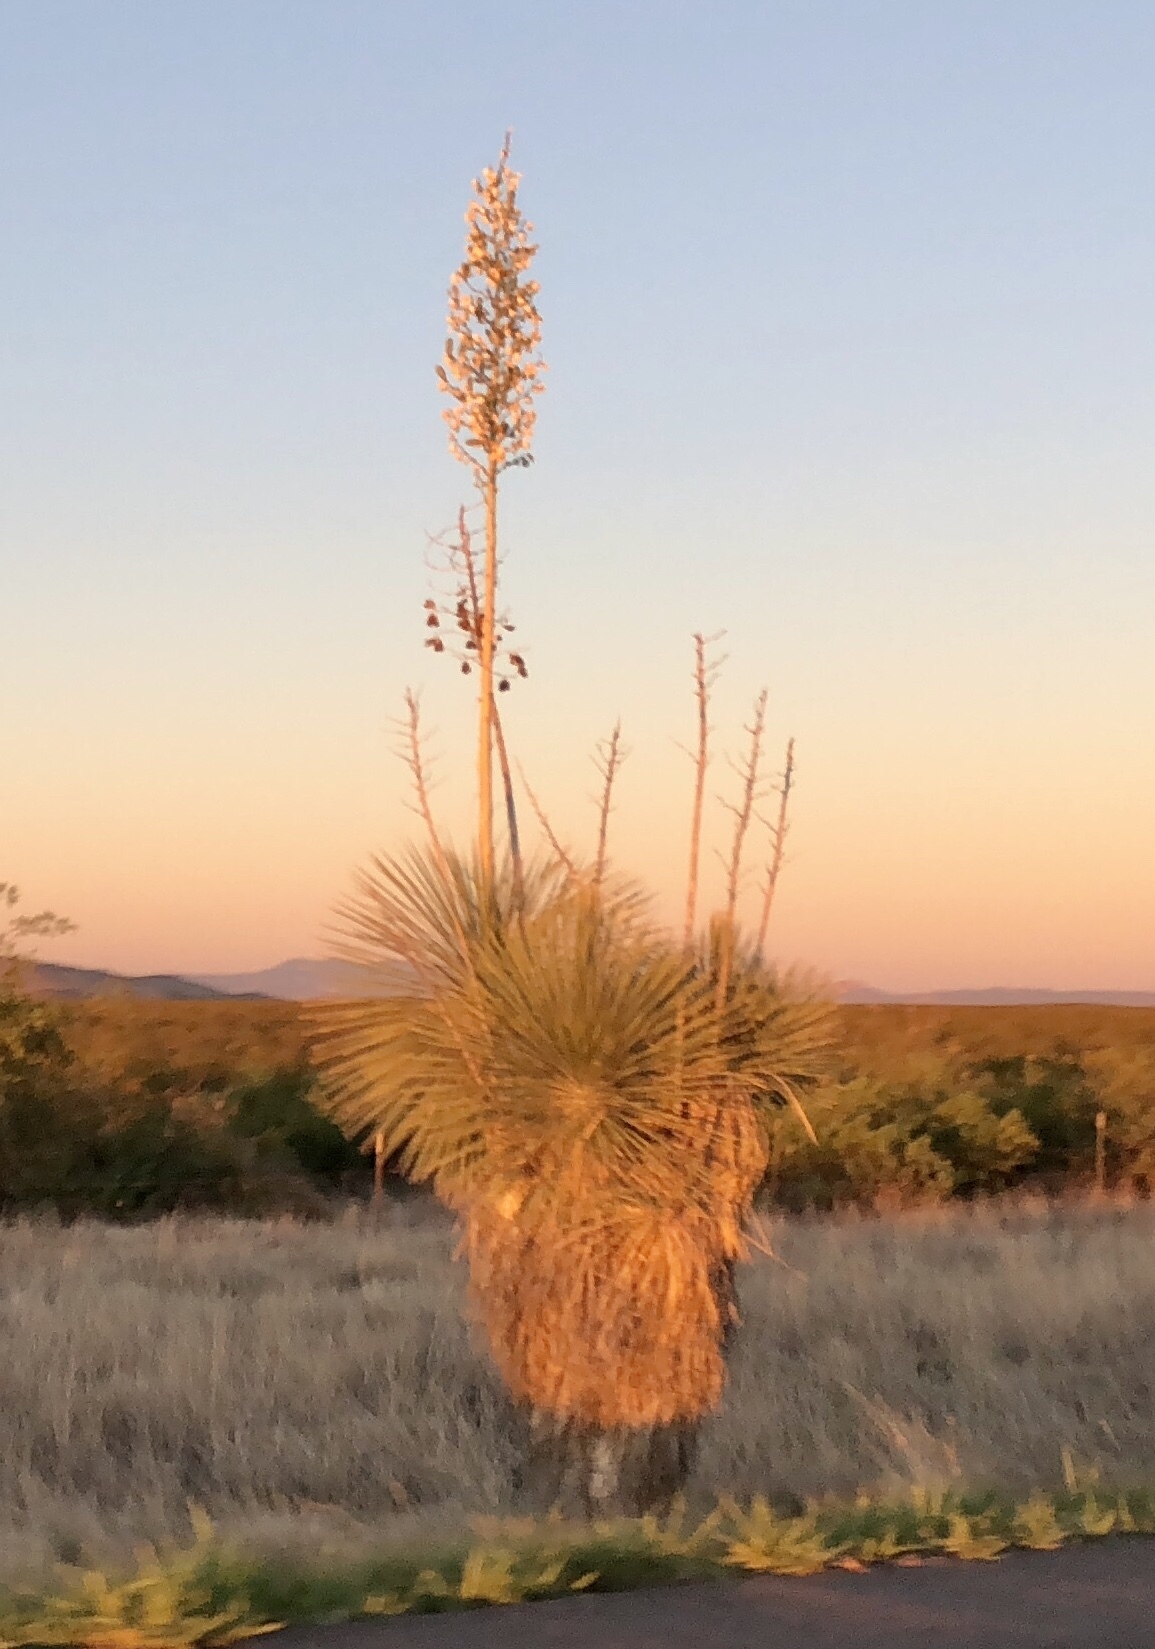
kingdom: Plantae
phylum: Tracheophyta
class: Liliopsida
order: Asparagales
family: Asparagaceae
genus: Yucca
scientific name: Yucca elata
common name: Palmella
